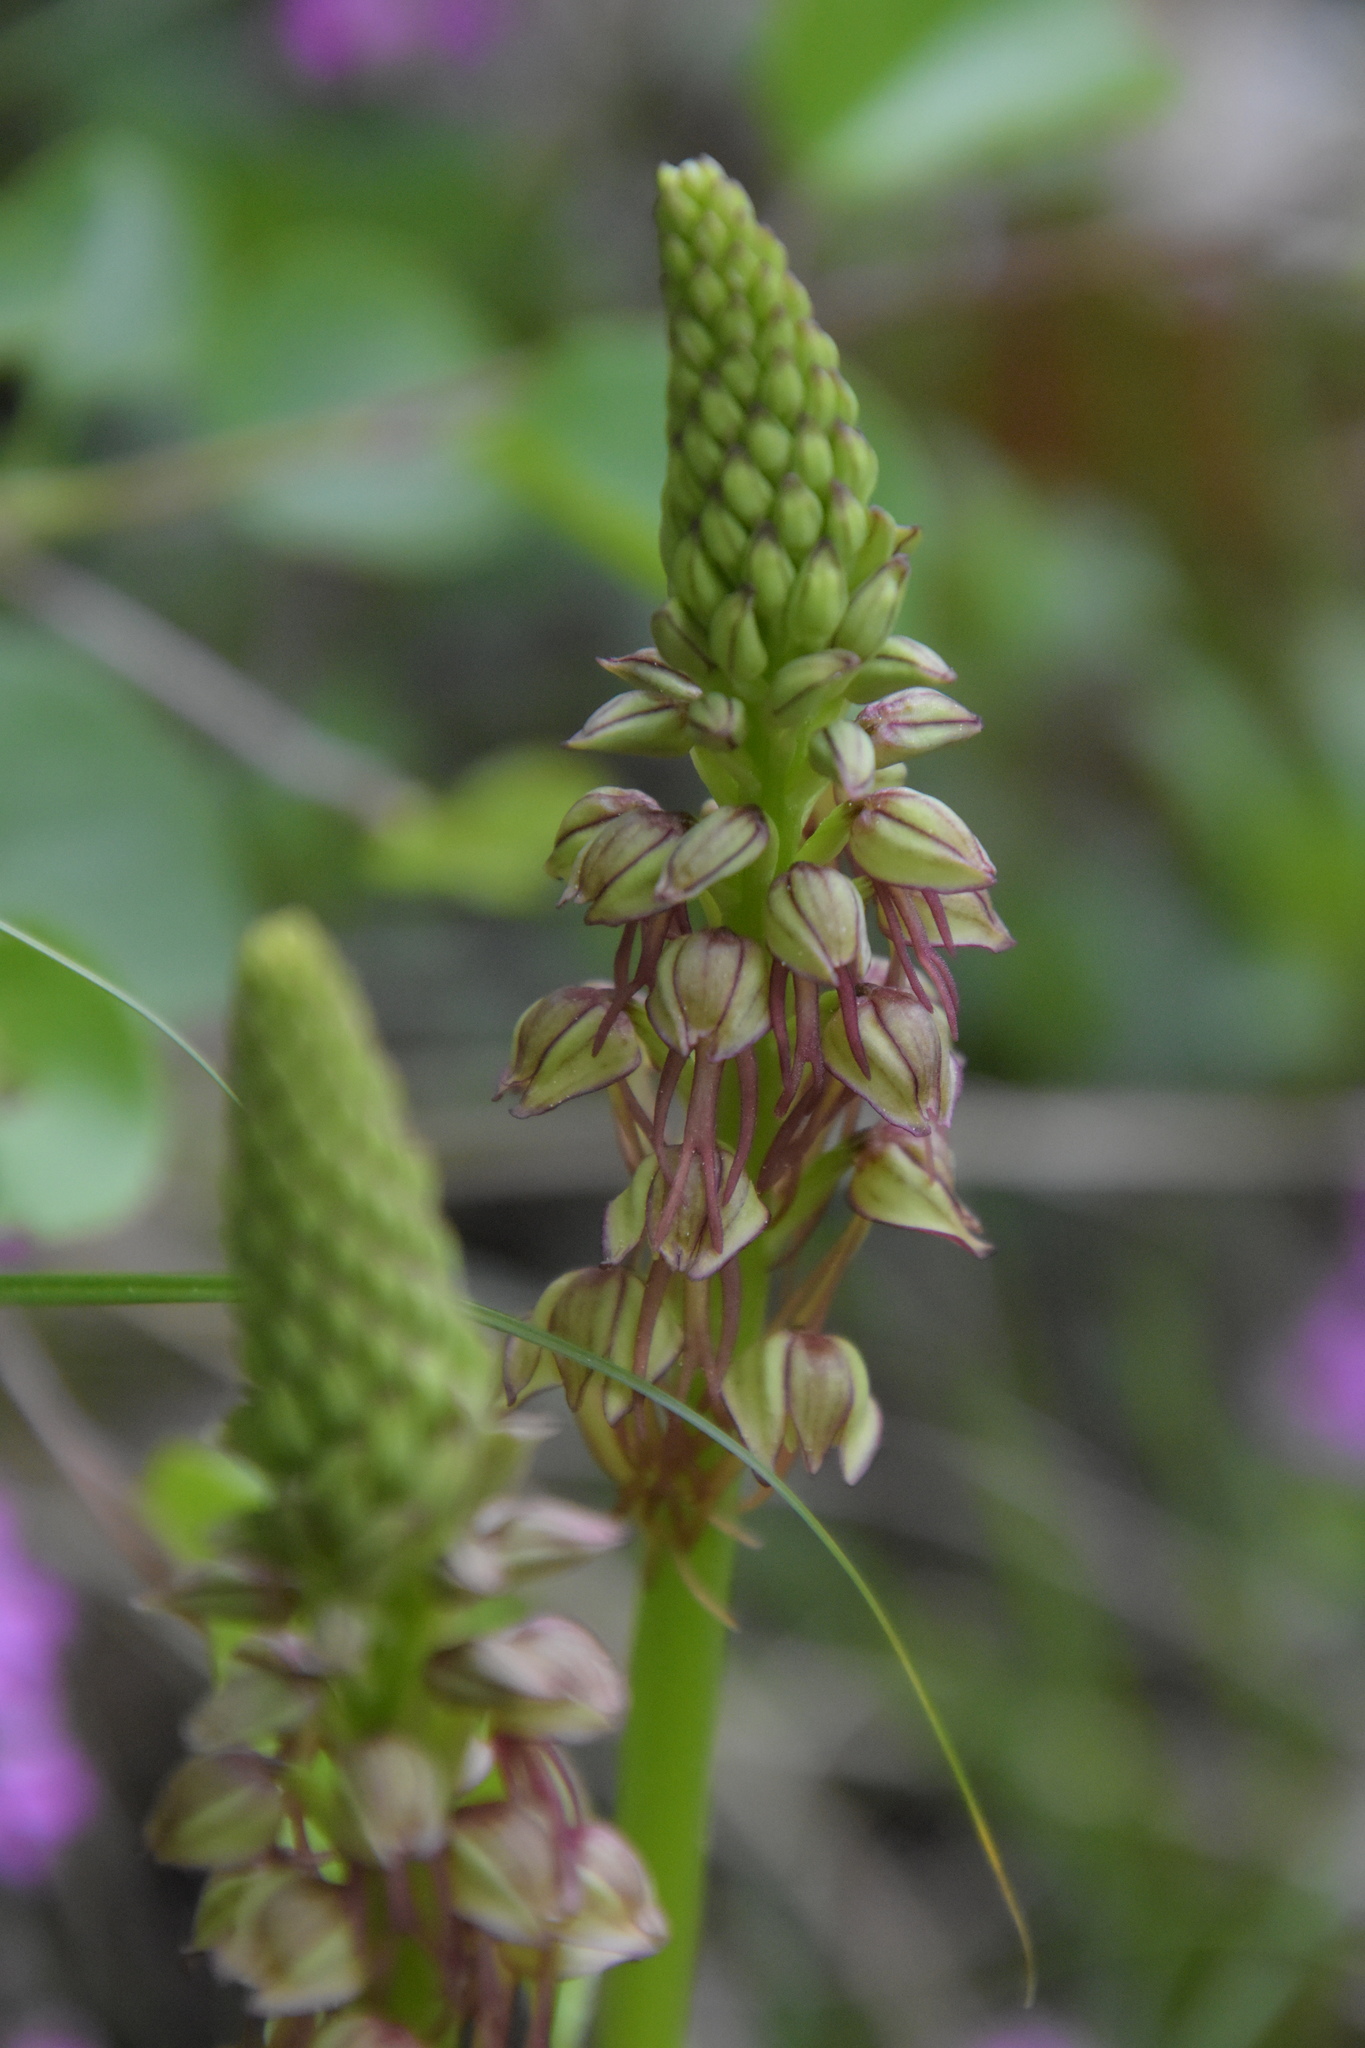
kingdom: Plantae
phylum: Tracheophyta
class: Liliopsida
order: Asparagales
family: Orchidaceae
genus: Orchis
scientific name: Orchis anthropophora
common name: Man orchid
